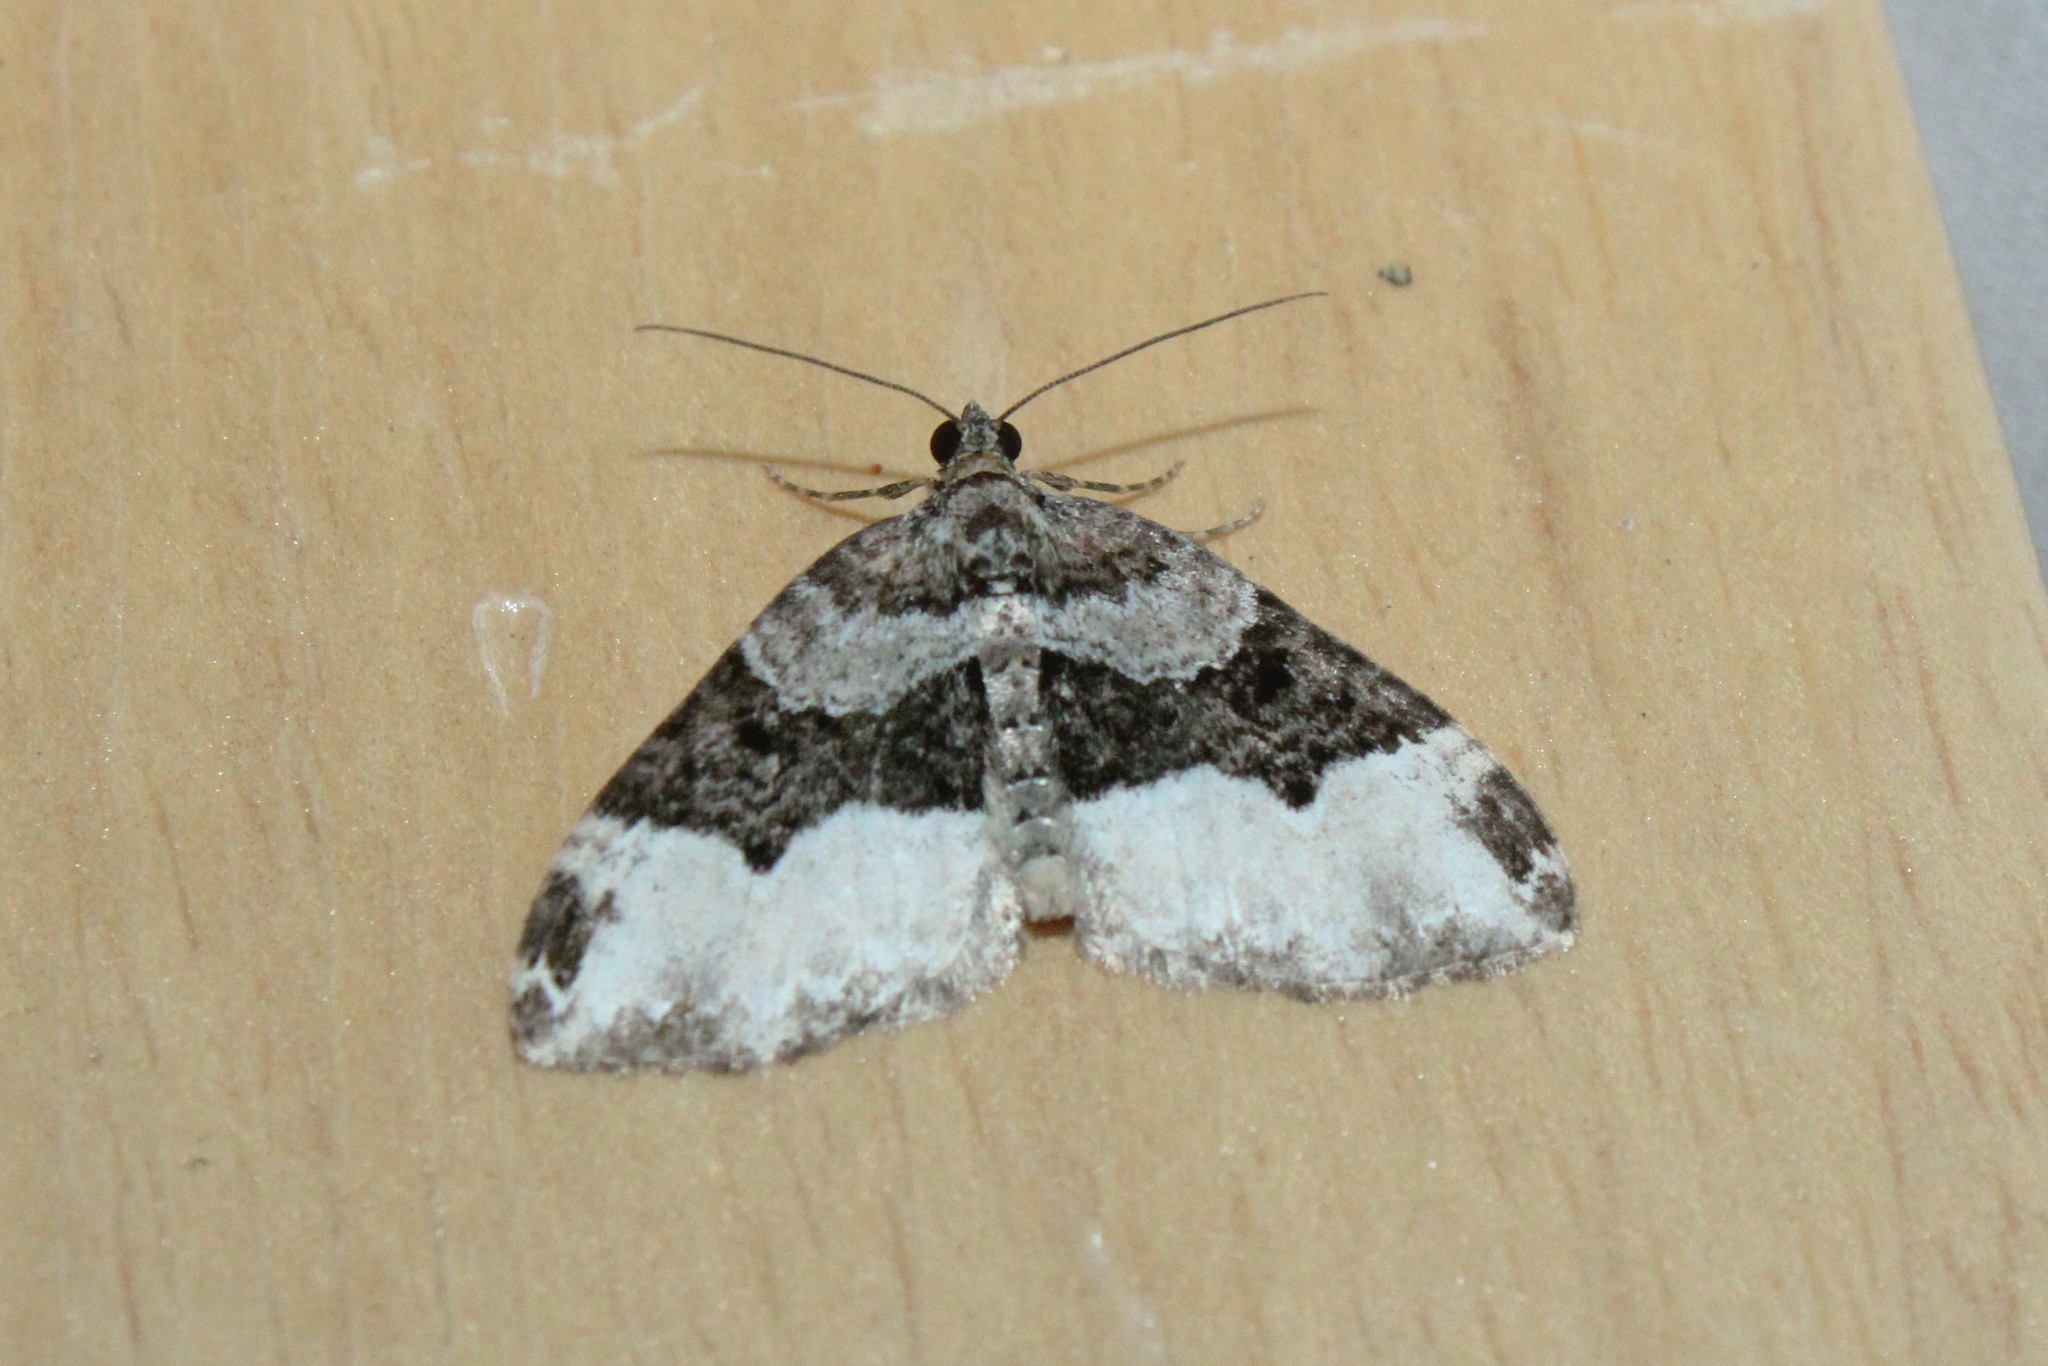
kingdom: Animalia
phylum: Arthropoda
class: Insecta
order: Lepidoptera
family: Geometridae
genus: Euphyia
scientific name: Euphyia intermediata
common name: Sharp-angled carpet
